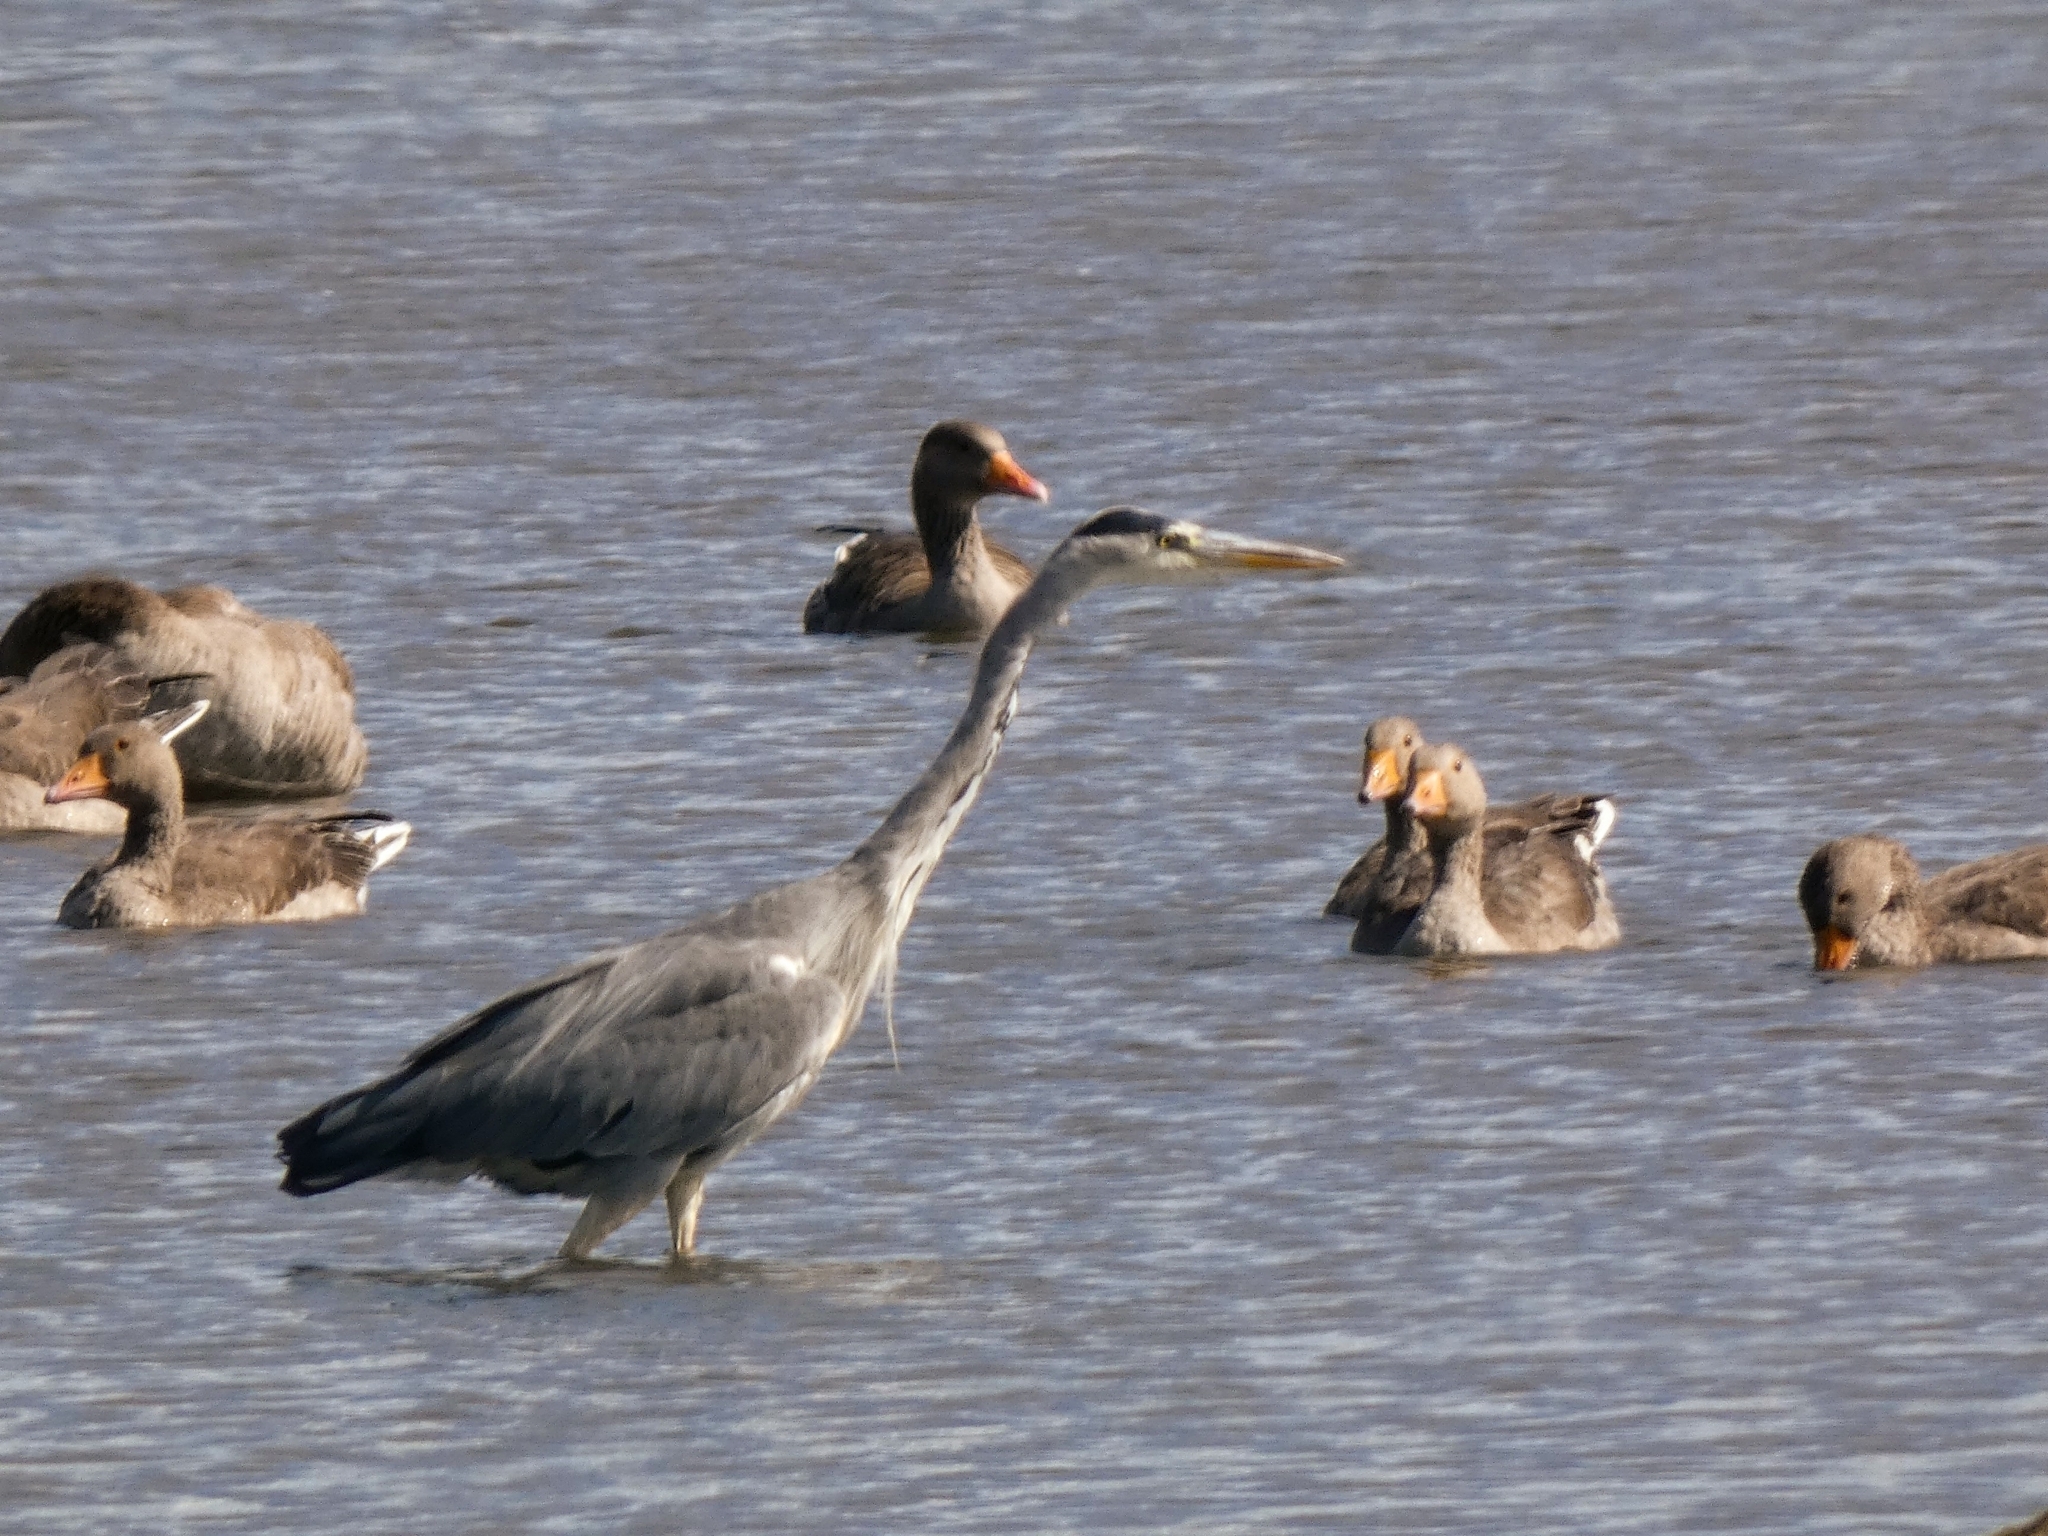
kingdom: Animalia
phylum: Chordata
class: Aves
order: Pelecaniformes
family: Ardeidae
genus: Ardea
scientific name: Ardea cinerea
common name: Grey heron
